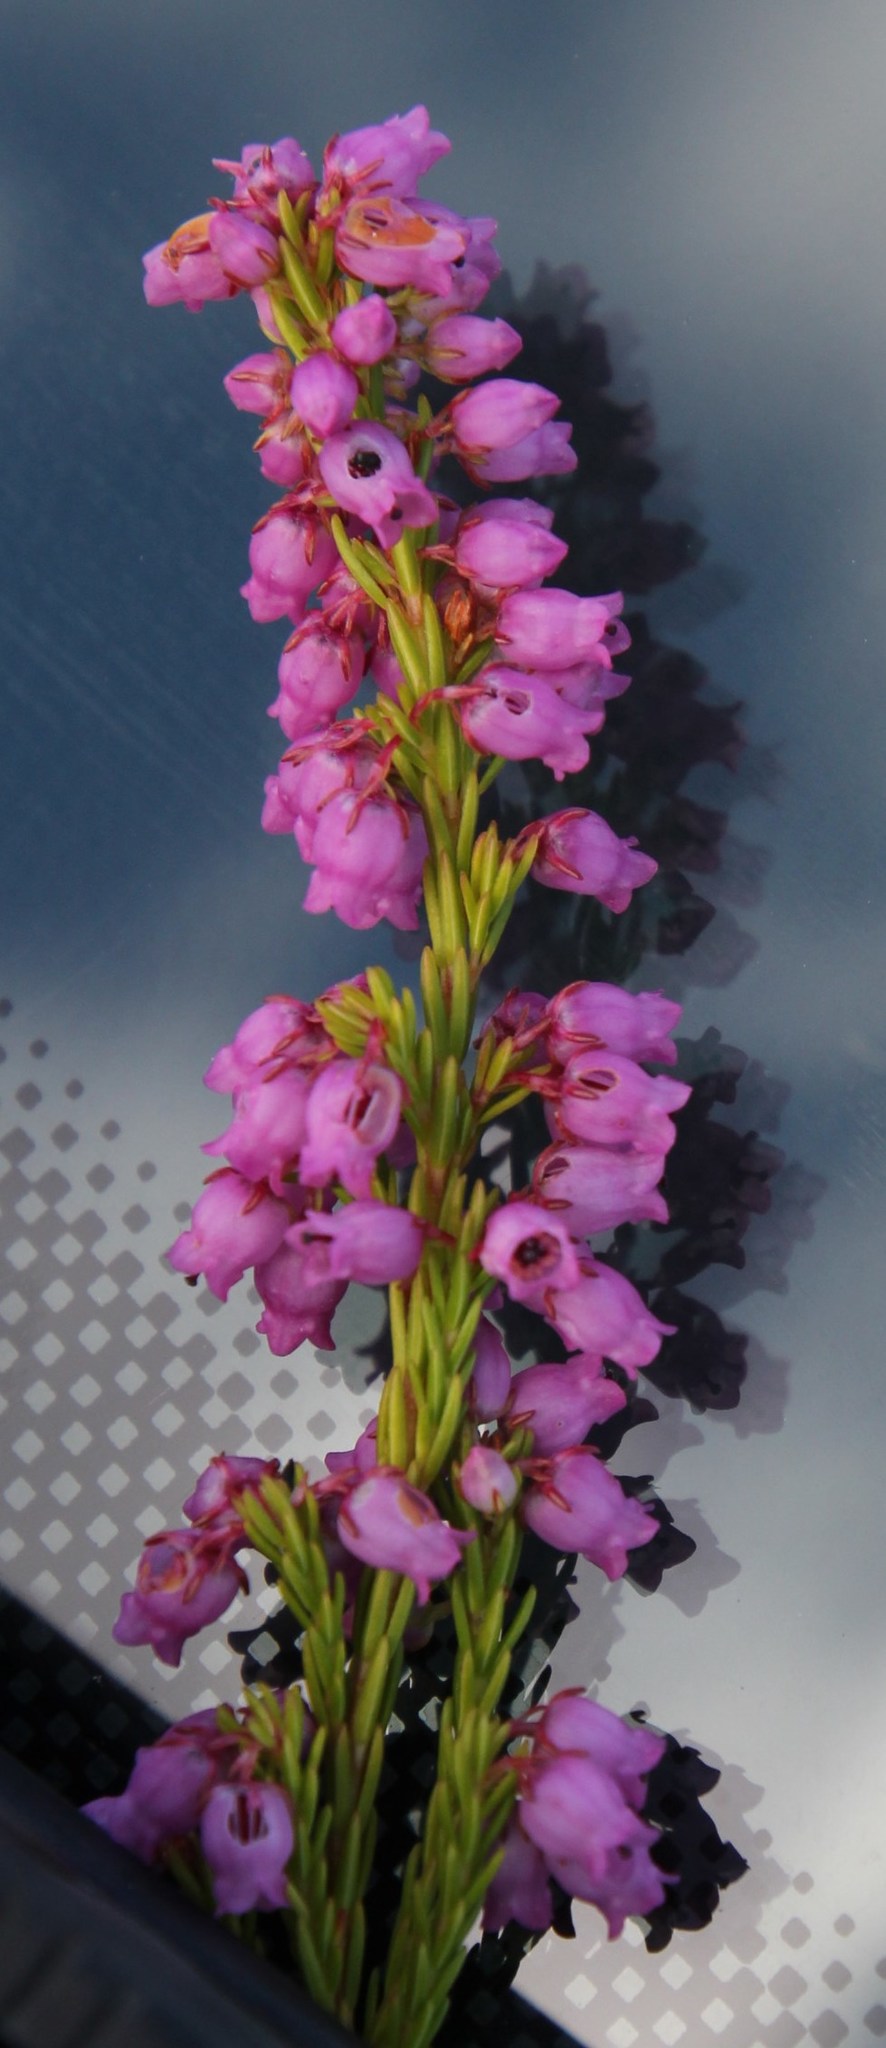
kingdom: Plantae
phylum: Tracheophyta
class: Magnoliopsida
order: Ericales
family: Ericaceae
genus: Erica
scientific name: Erica laeta
